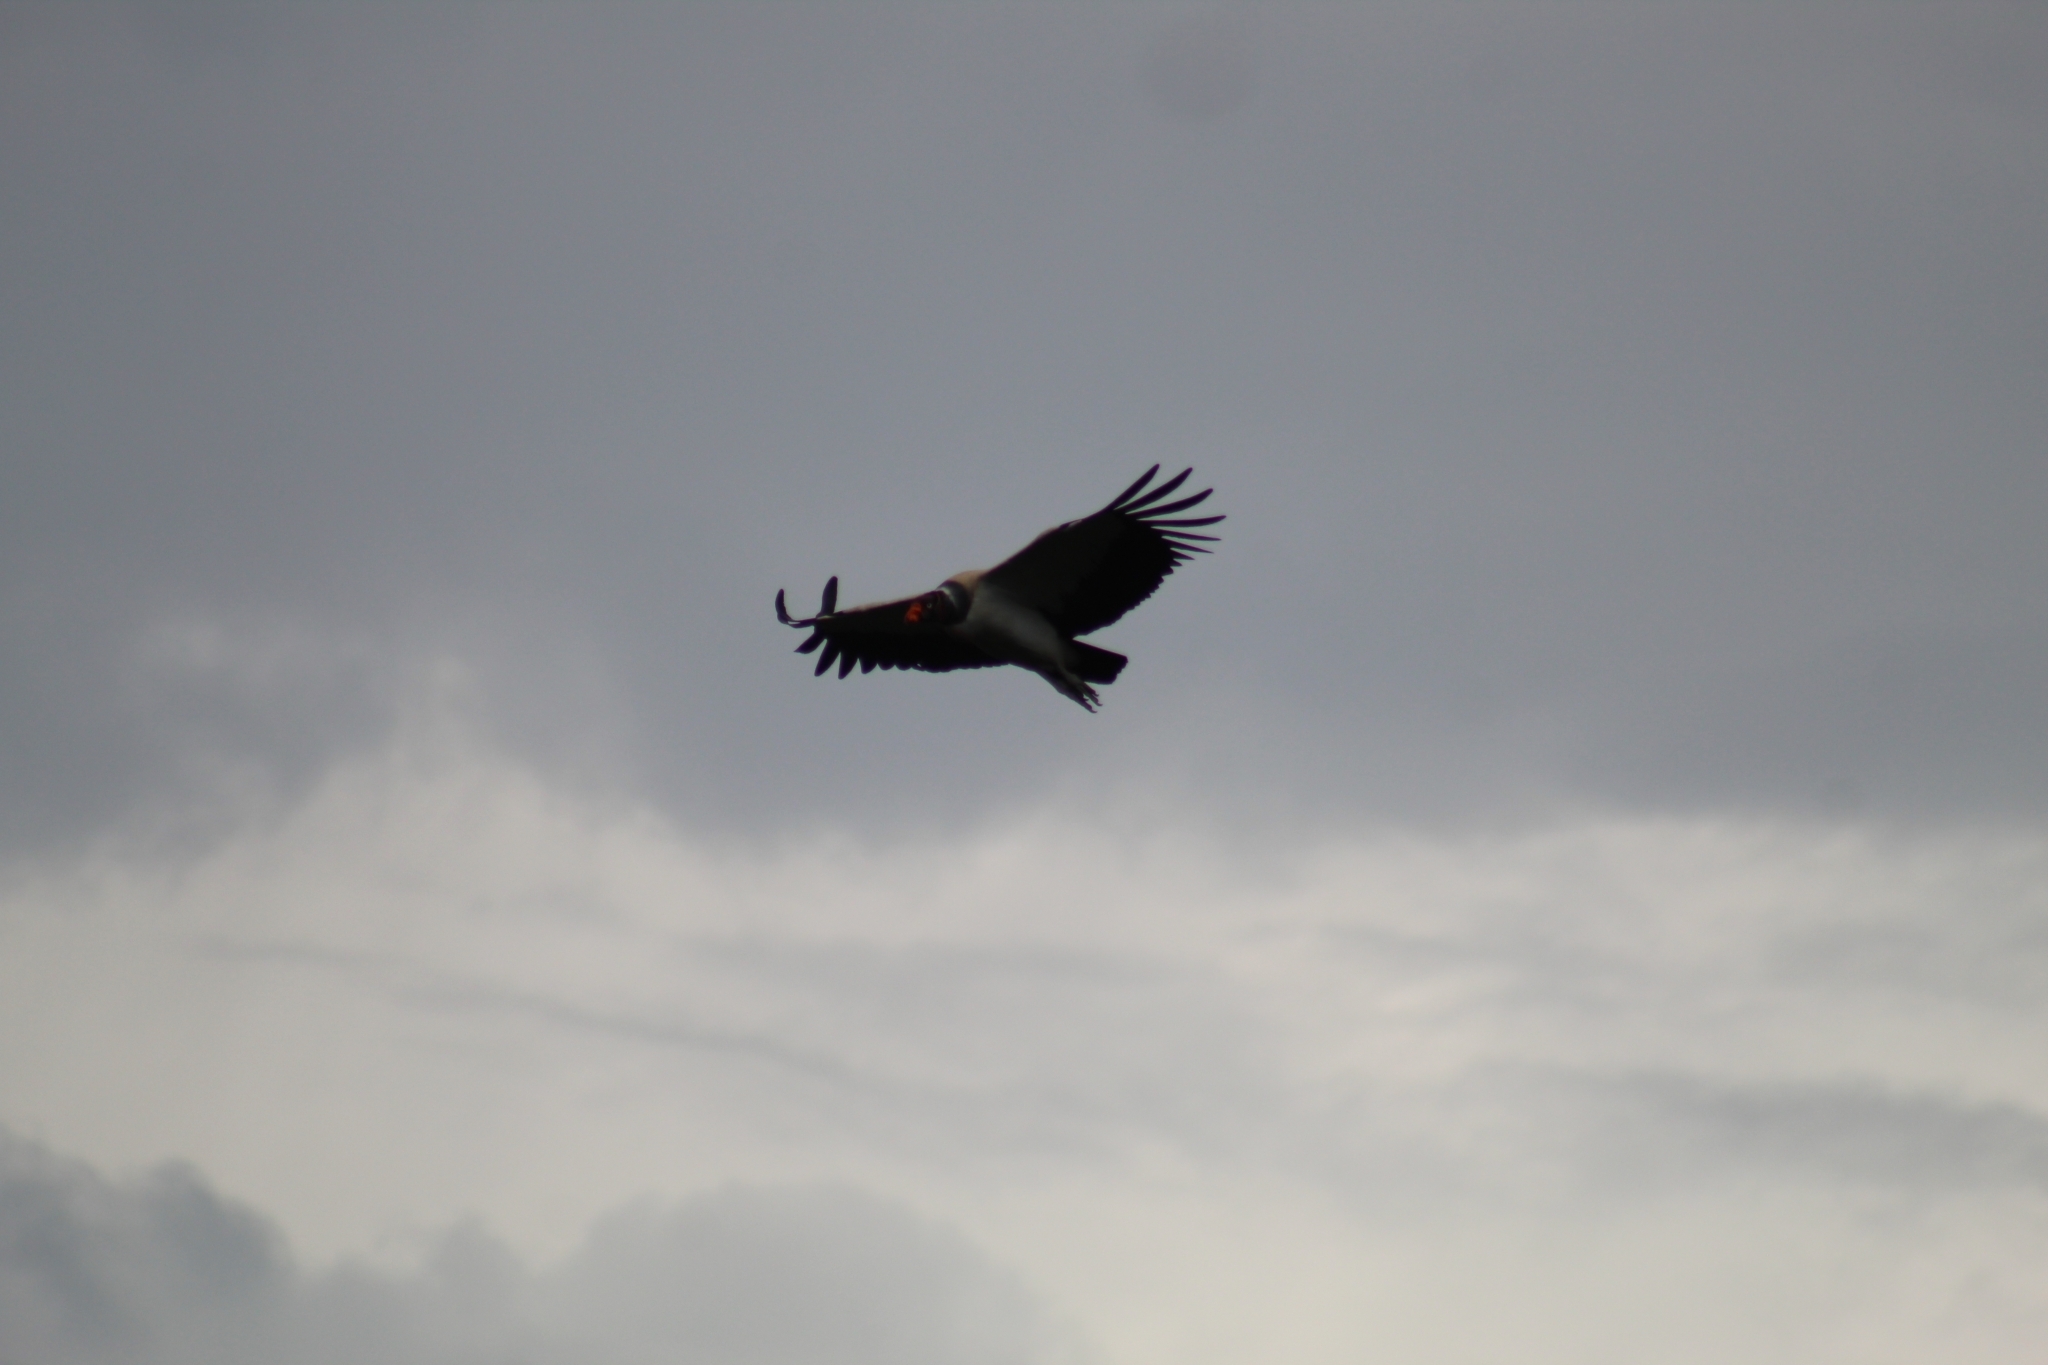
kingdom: Animalia
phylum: Chordata
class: Aves
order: Accipitriformes
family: Cathartidae
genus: Sarcoramphus
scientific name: Sarcoramphus papa
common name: King vulture
